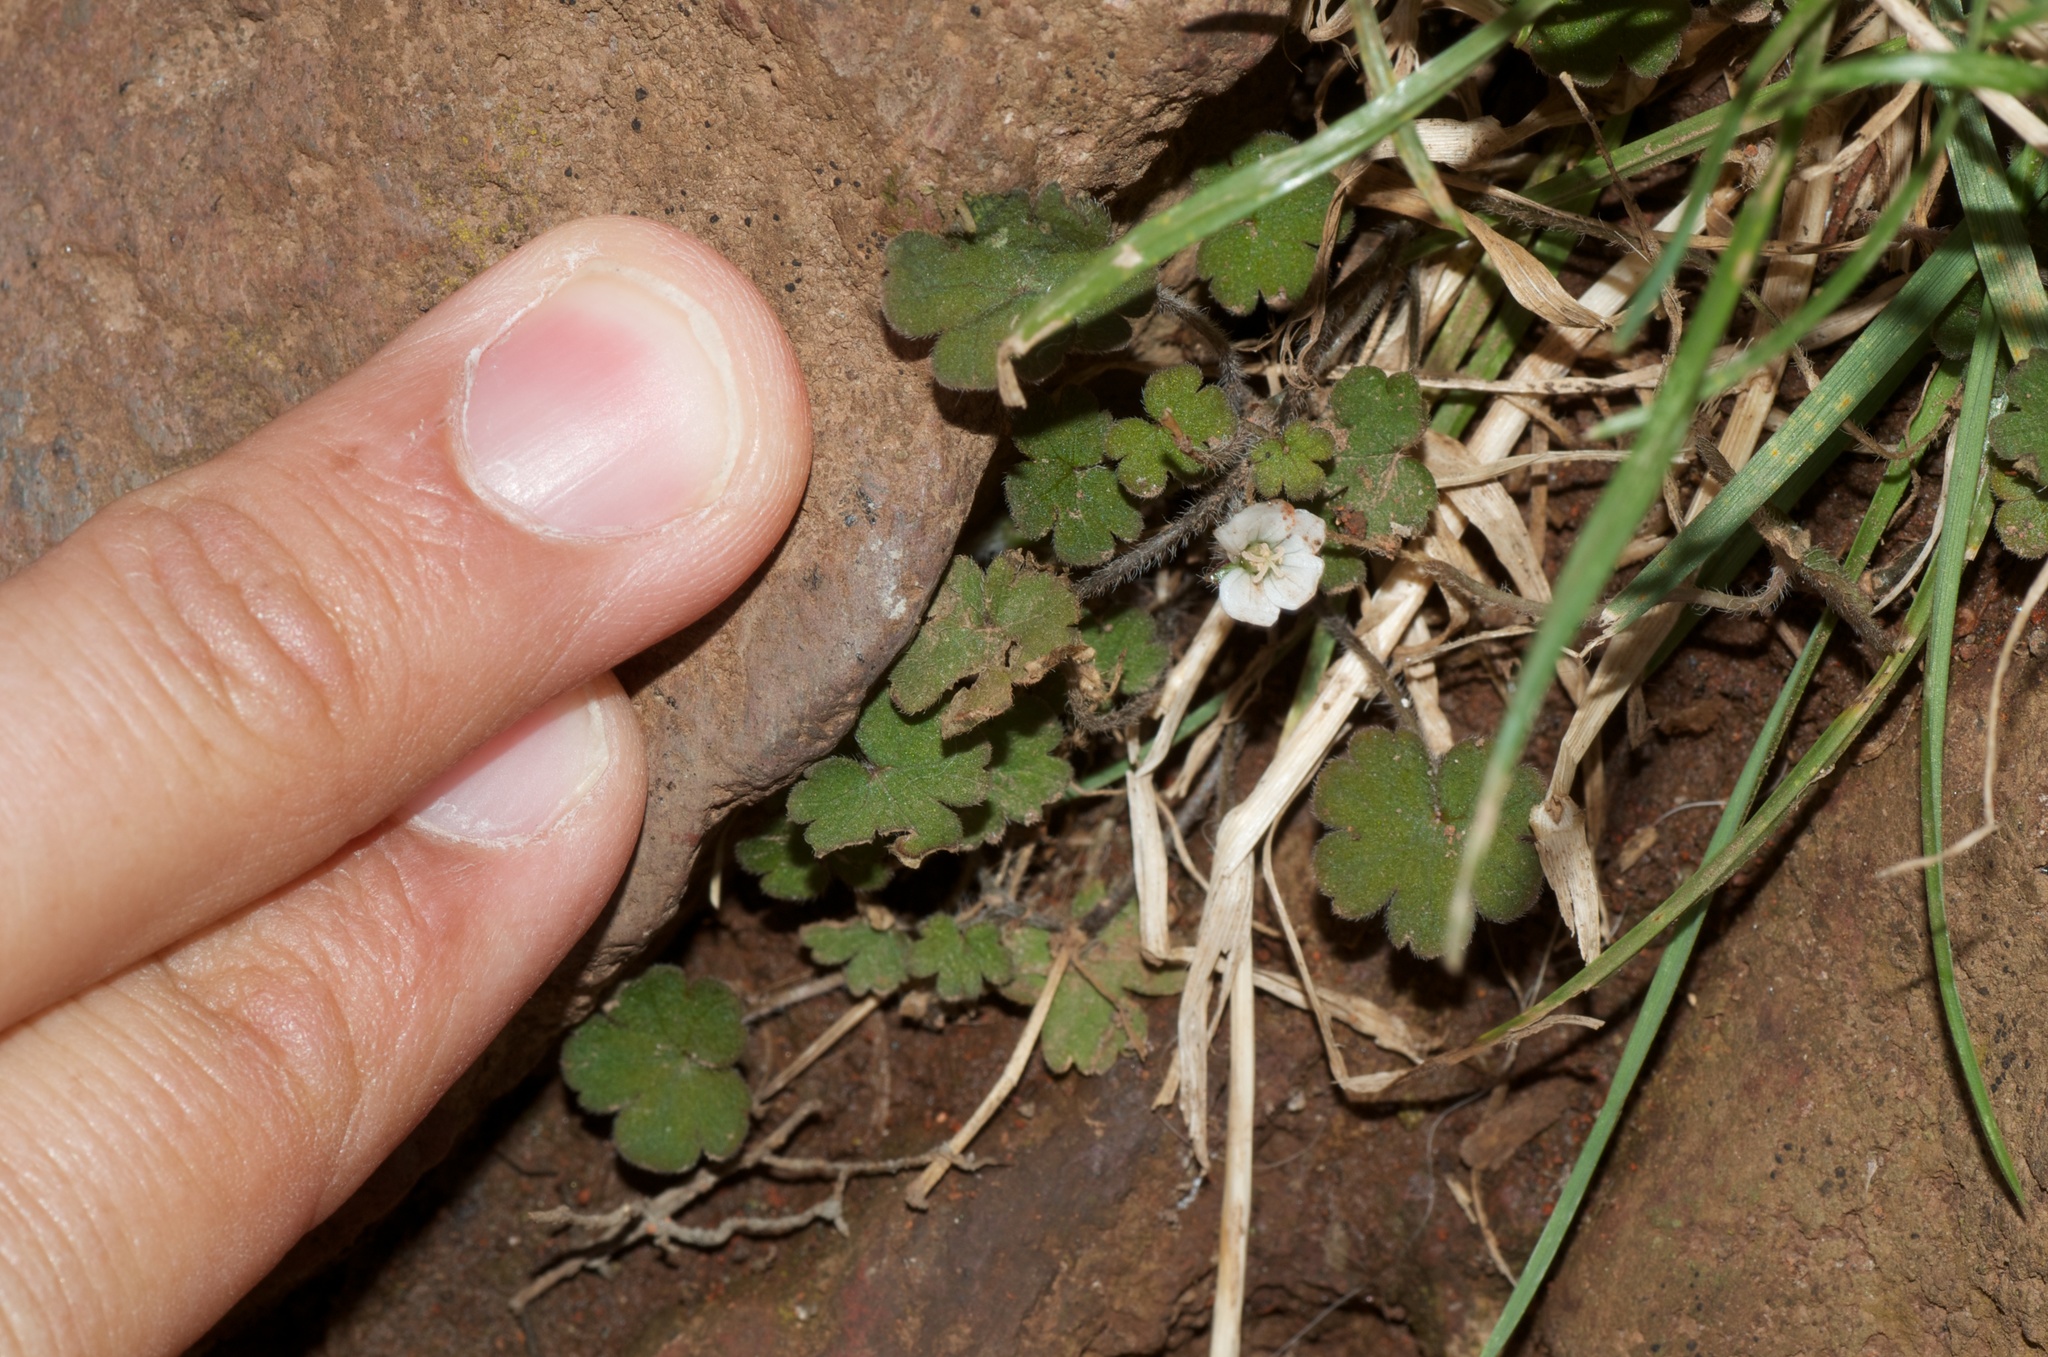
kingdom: Plantae
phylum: Tracheophyta
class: Magnoliopsida
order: Geraniales
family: Geraniaceae
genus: Geranium
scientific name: Geranium
